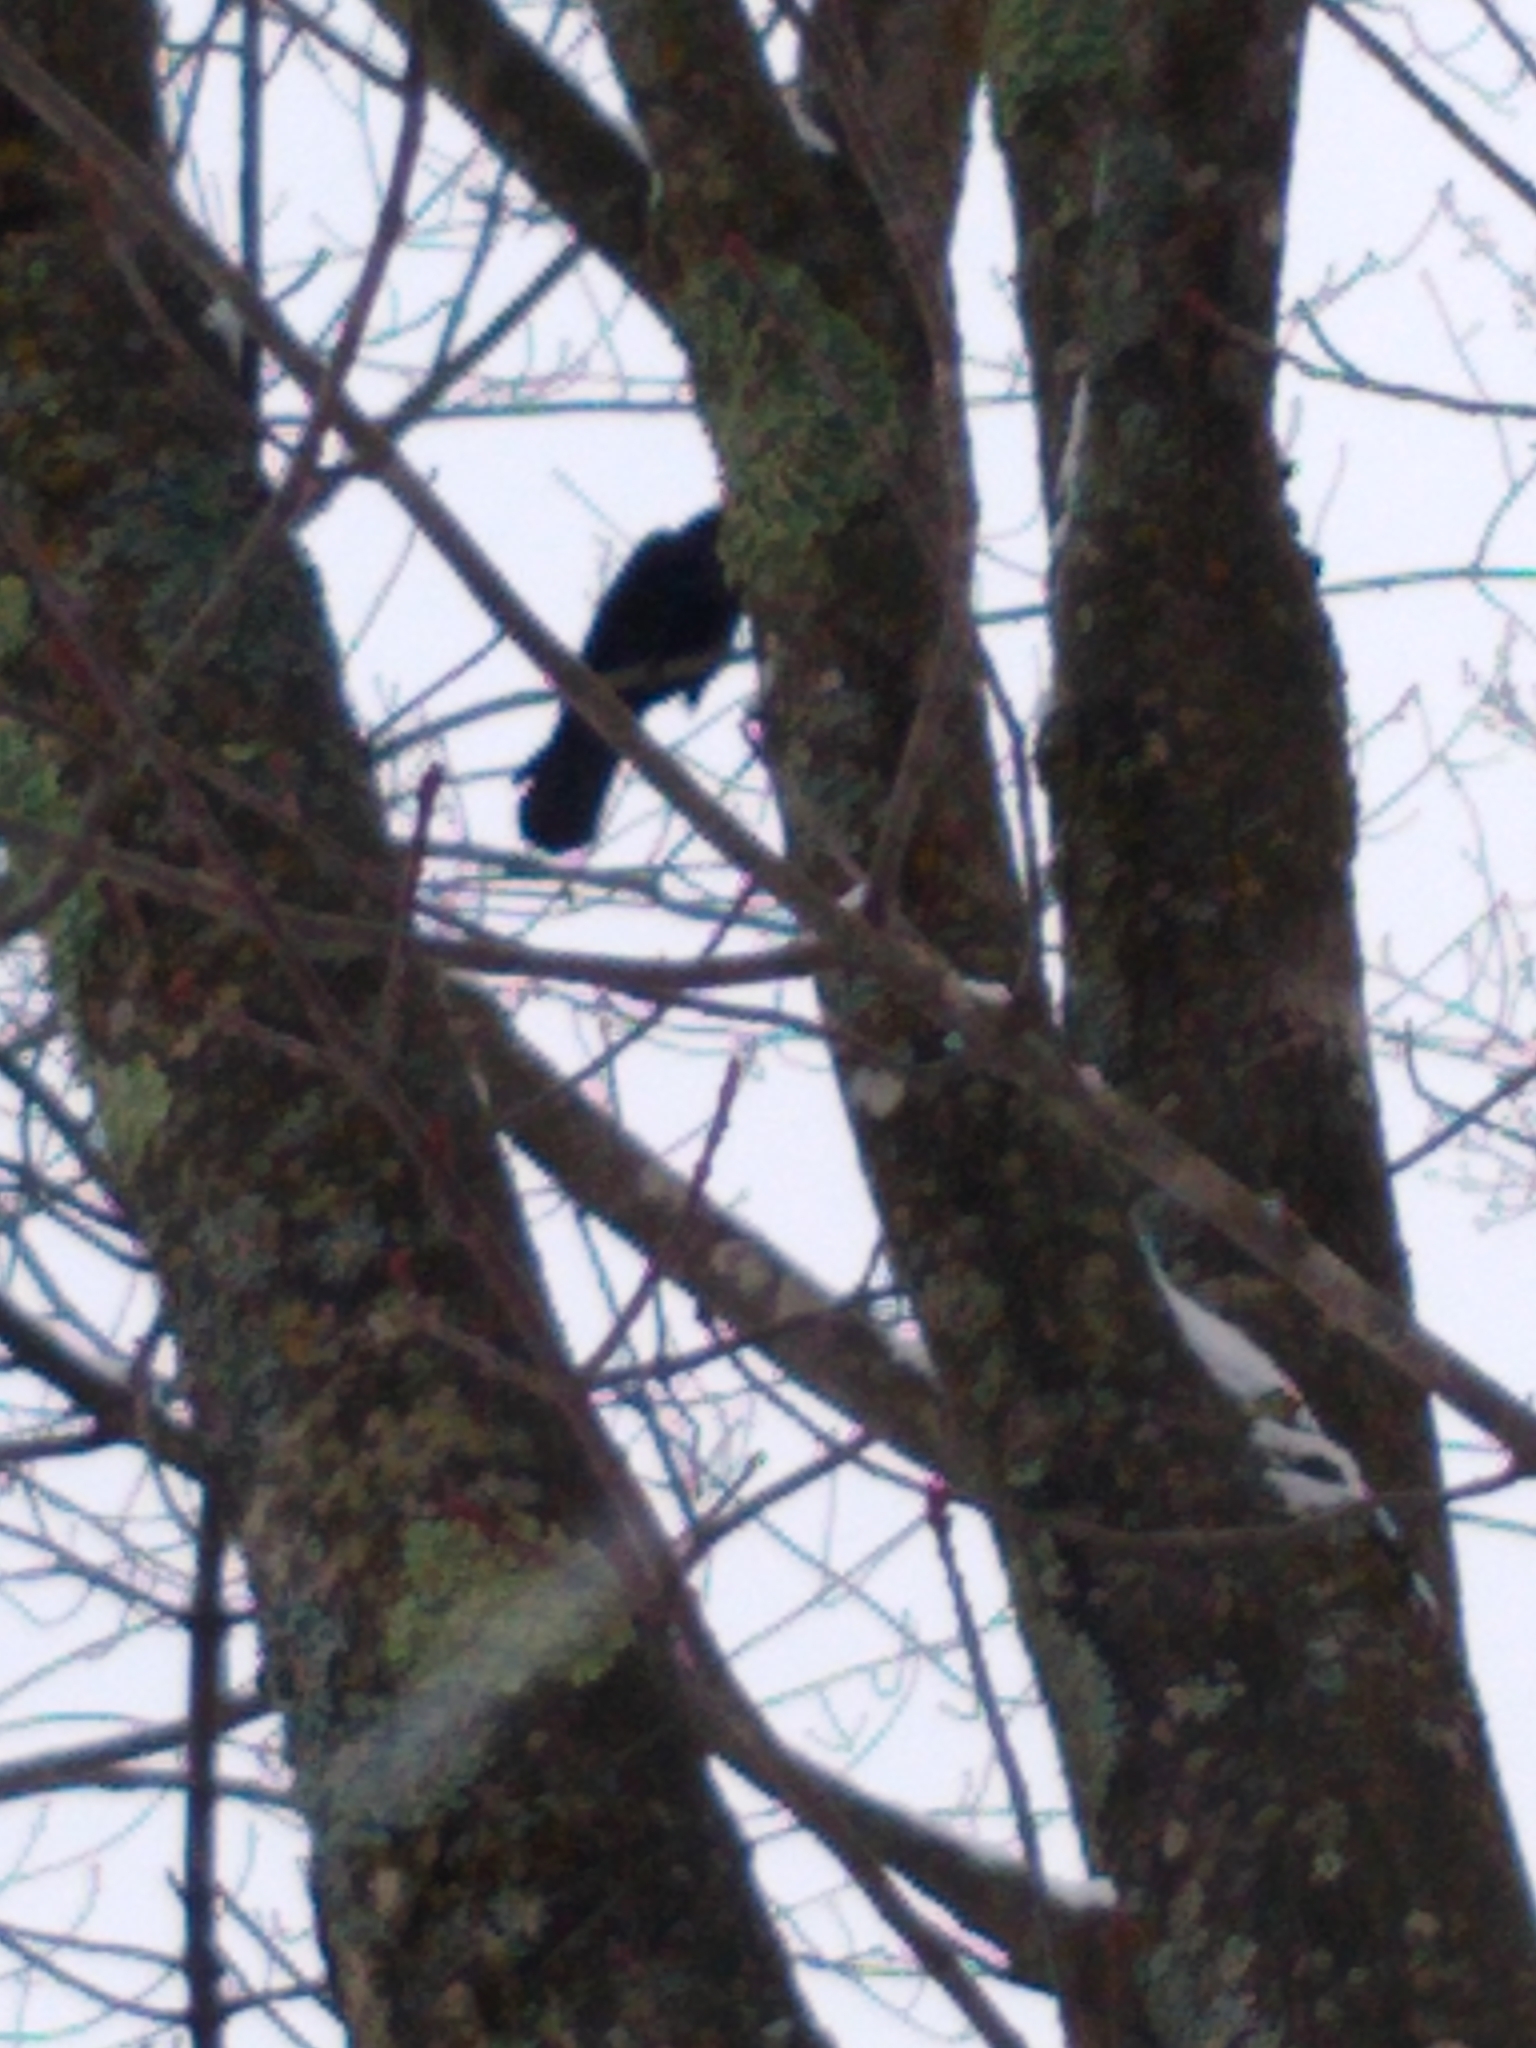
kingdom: Animalia
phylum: Chordata
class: Aves
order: Passeriformes
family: Corvidae
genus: Corvus
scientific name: Corvus brachyrhynchos
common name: American crow
